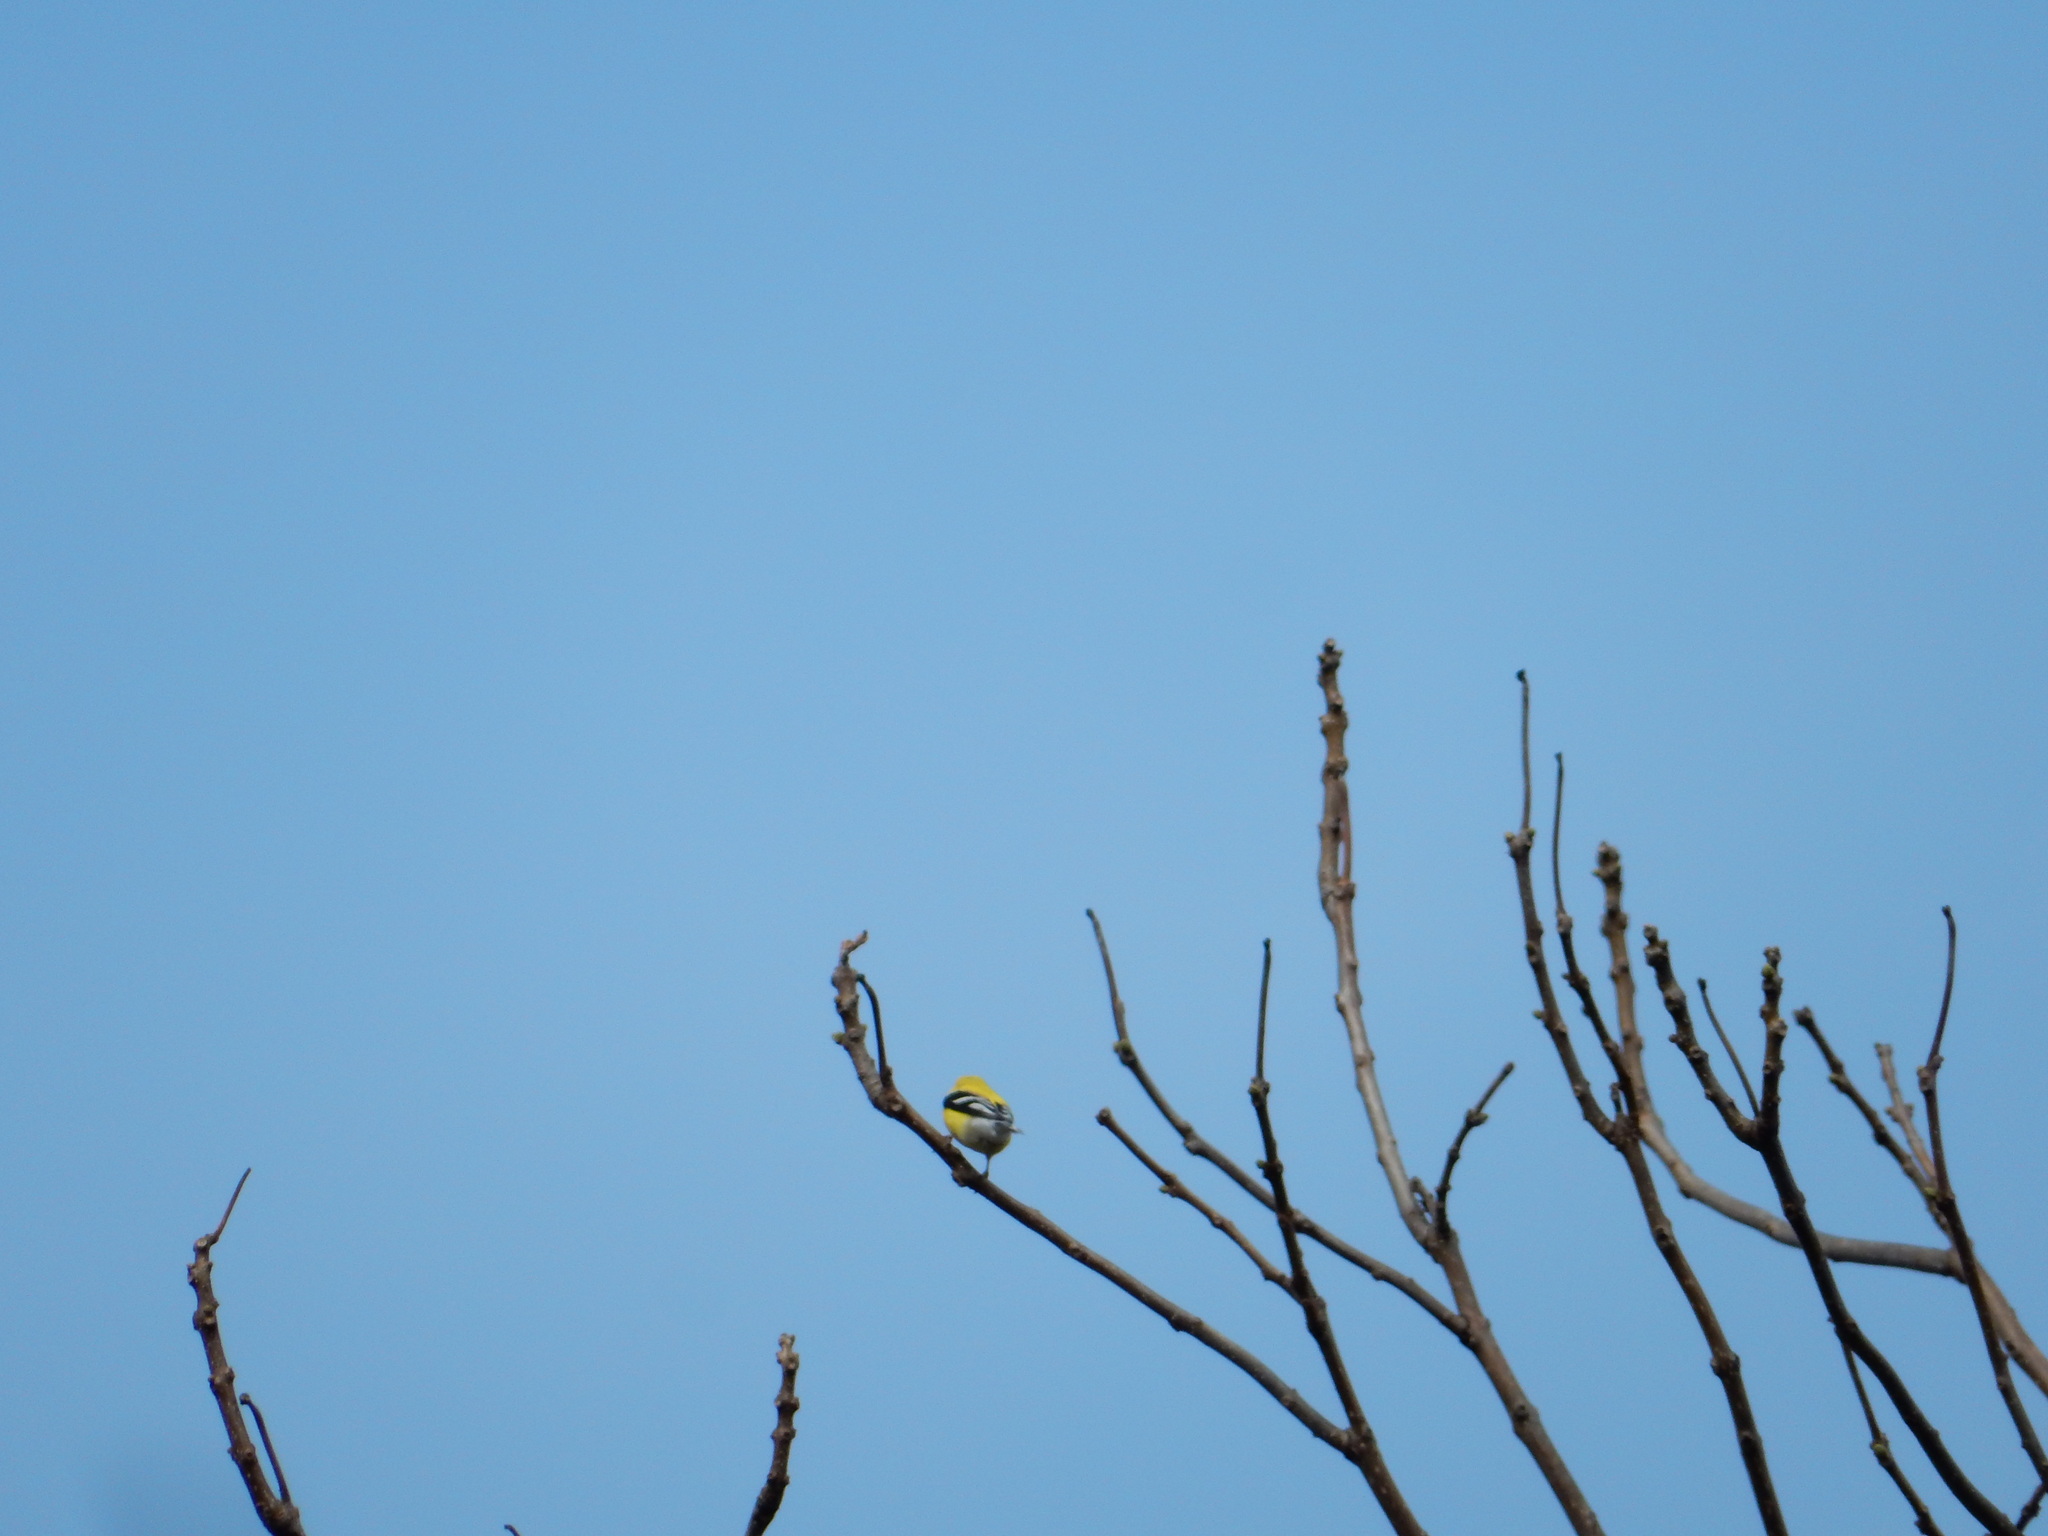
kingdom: Animalia
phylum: Chordata
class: Aves
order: Passeriformes
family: Fringillidae
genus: Spinus
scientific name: Spinus tristis
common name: American goldfinch
